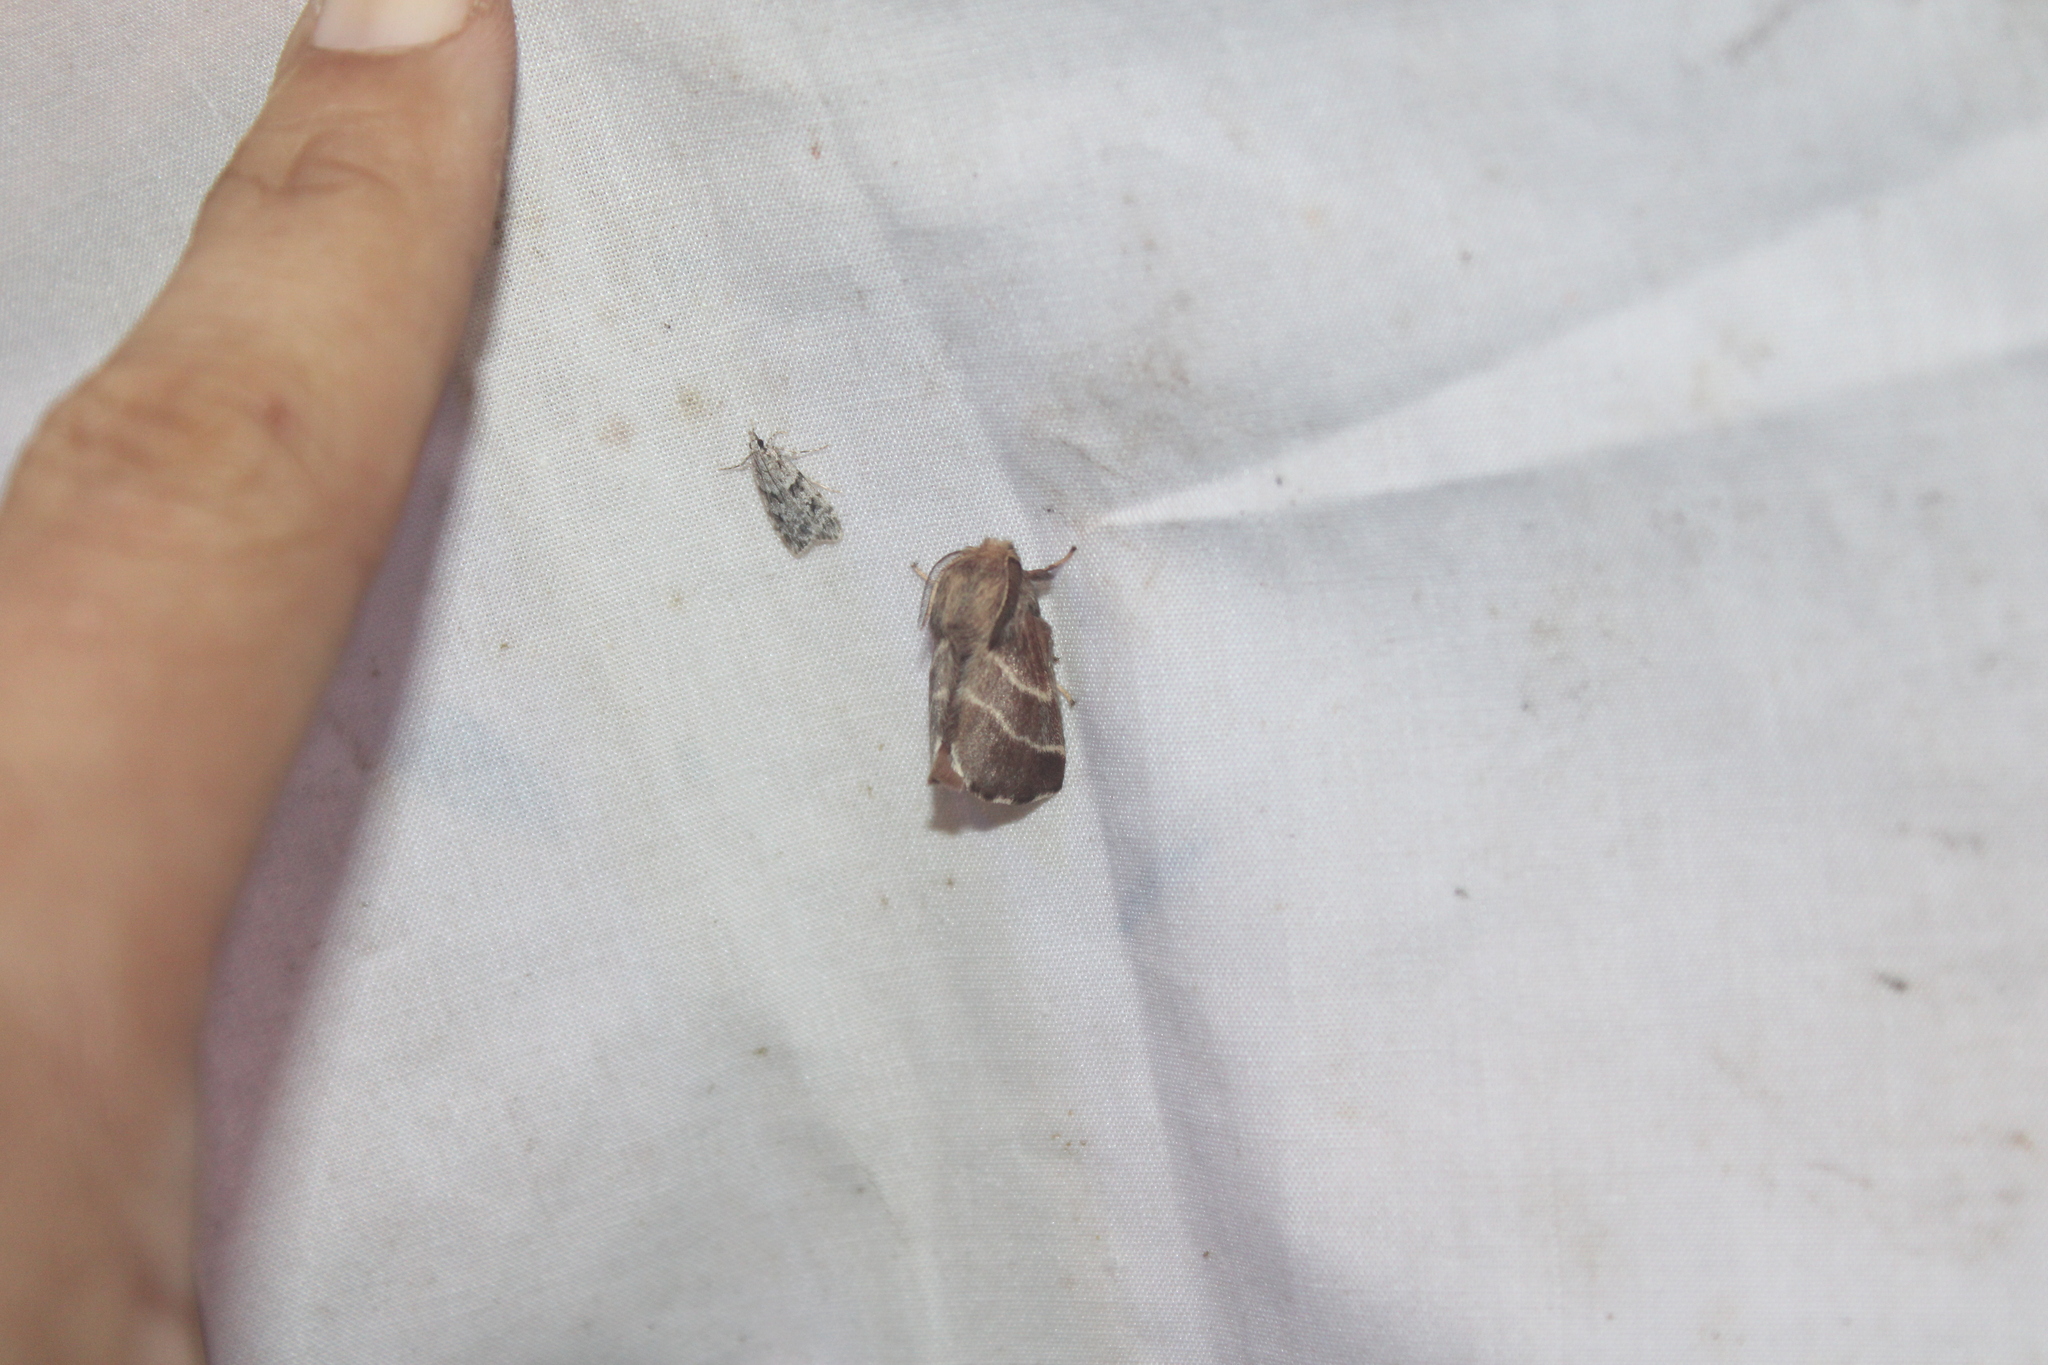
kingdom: Animalia
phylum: Arthropoda
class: Insecta
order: Lepidoptera
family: Lasiocampidae
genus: Malacosoma
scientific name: Malacosoma americana
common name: Eastern tent caterpillar moth
